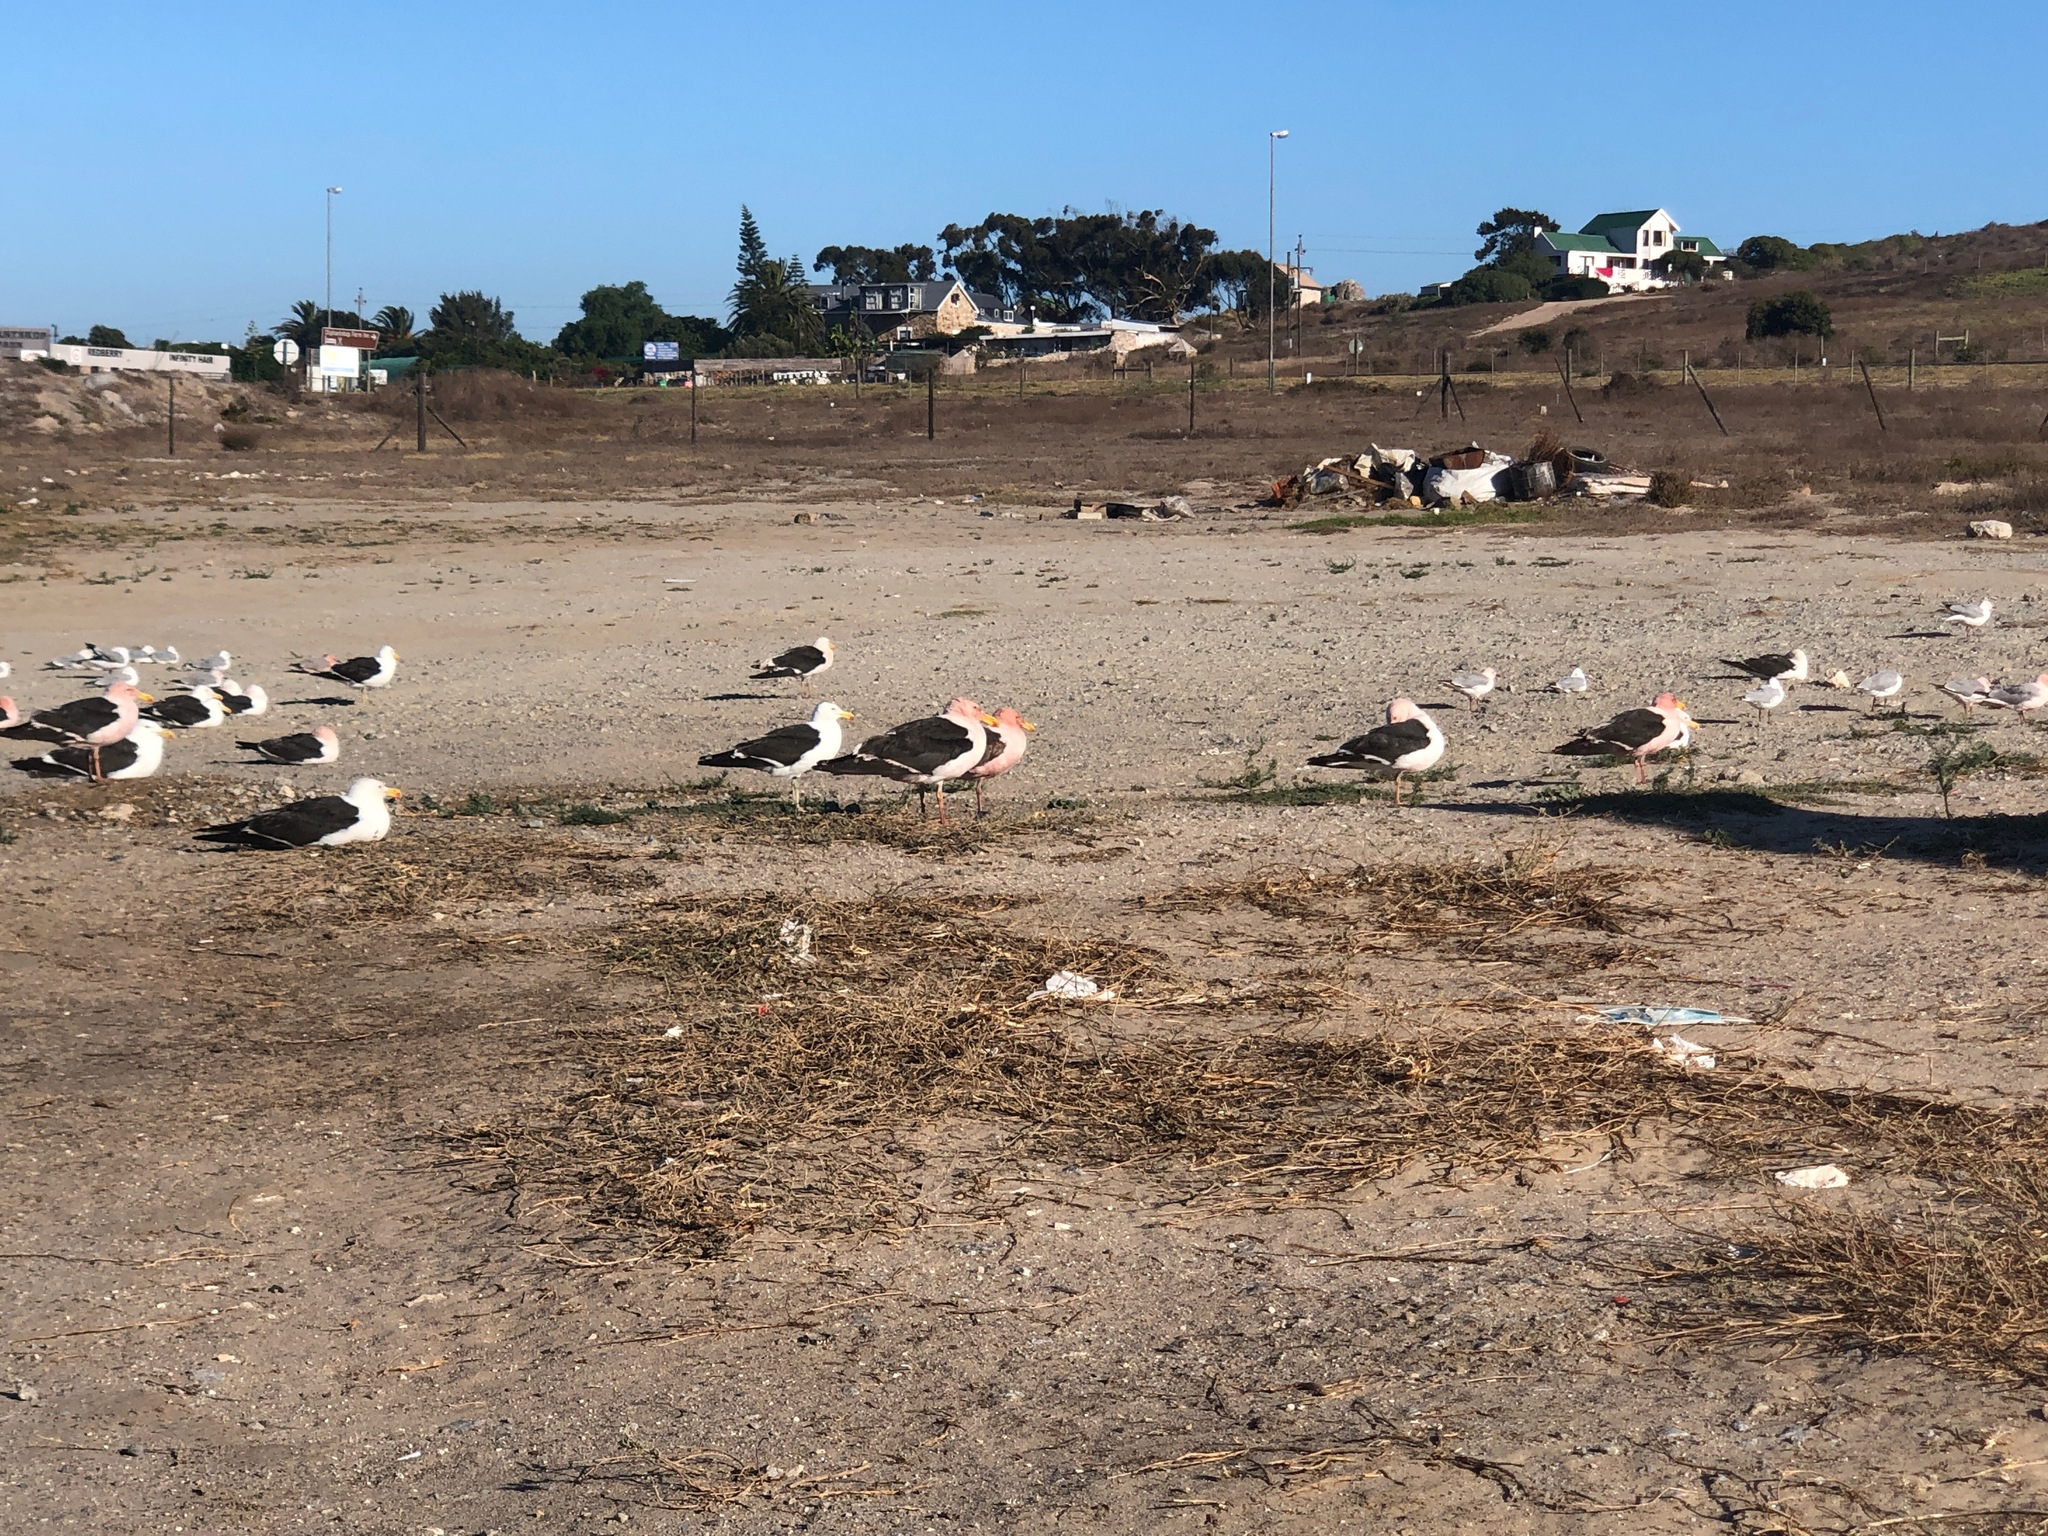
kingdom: Animalia
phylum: Chordata
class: Aves
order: Charadriiformes
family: Laridae
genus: Larus
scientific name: Larus dominicanus
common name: Kelp gull
